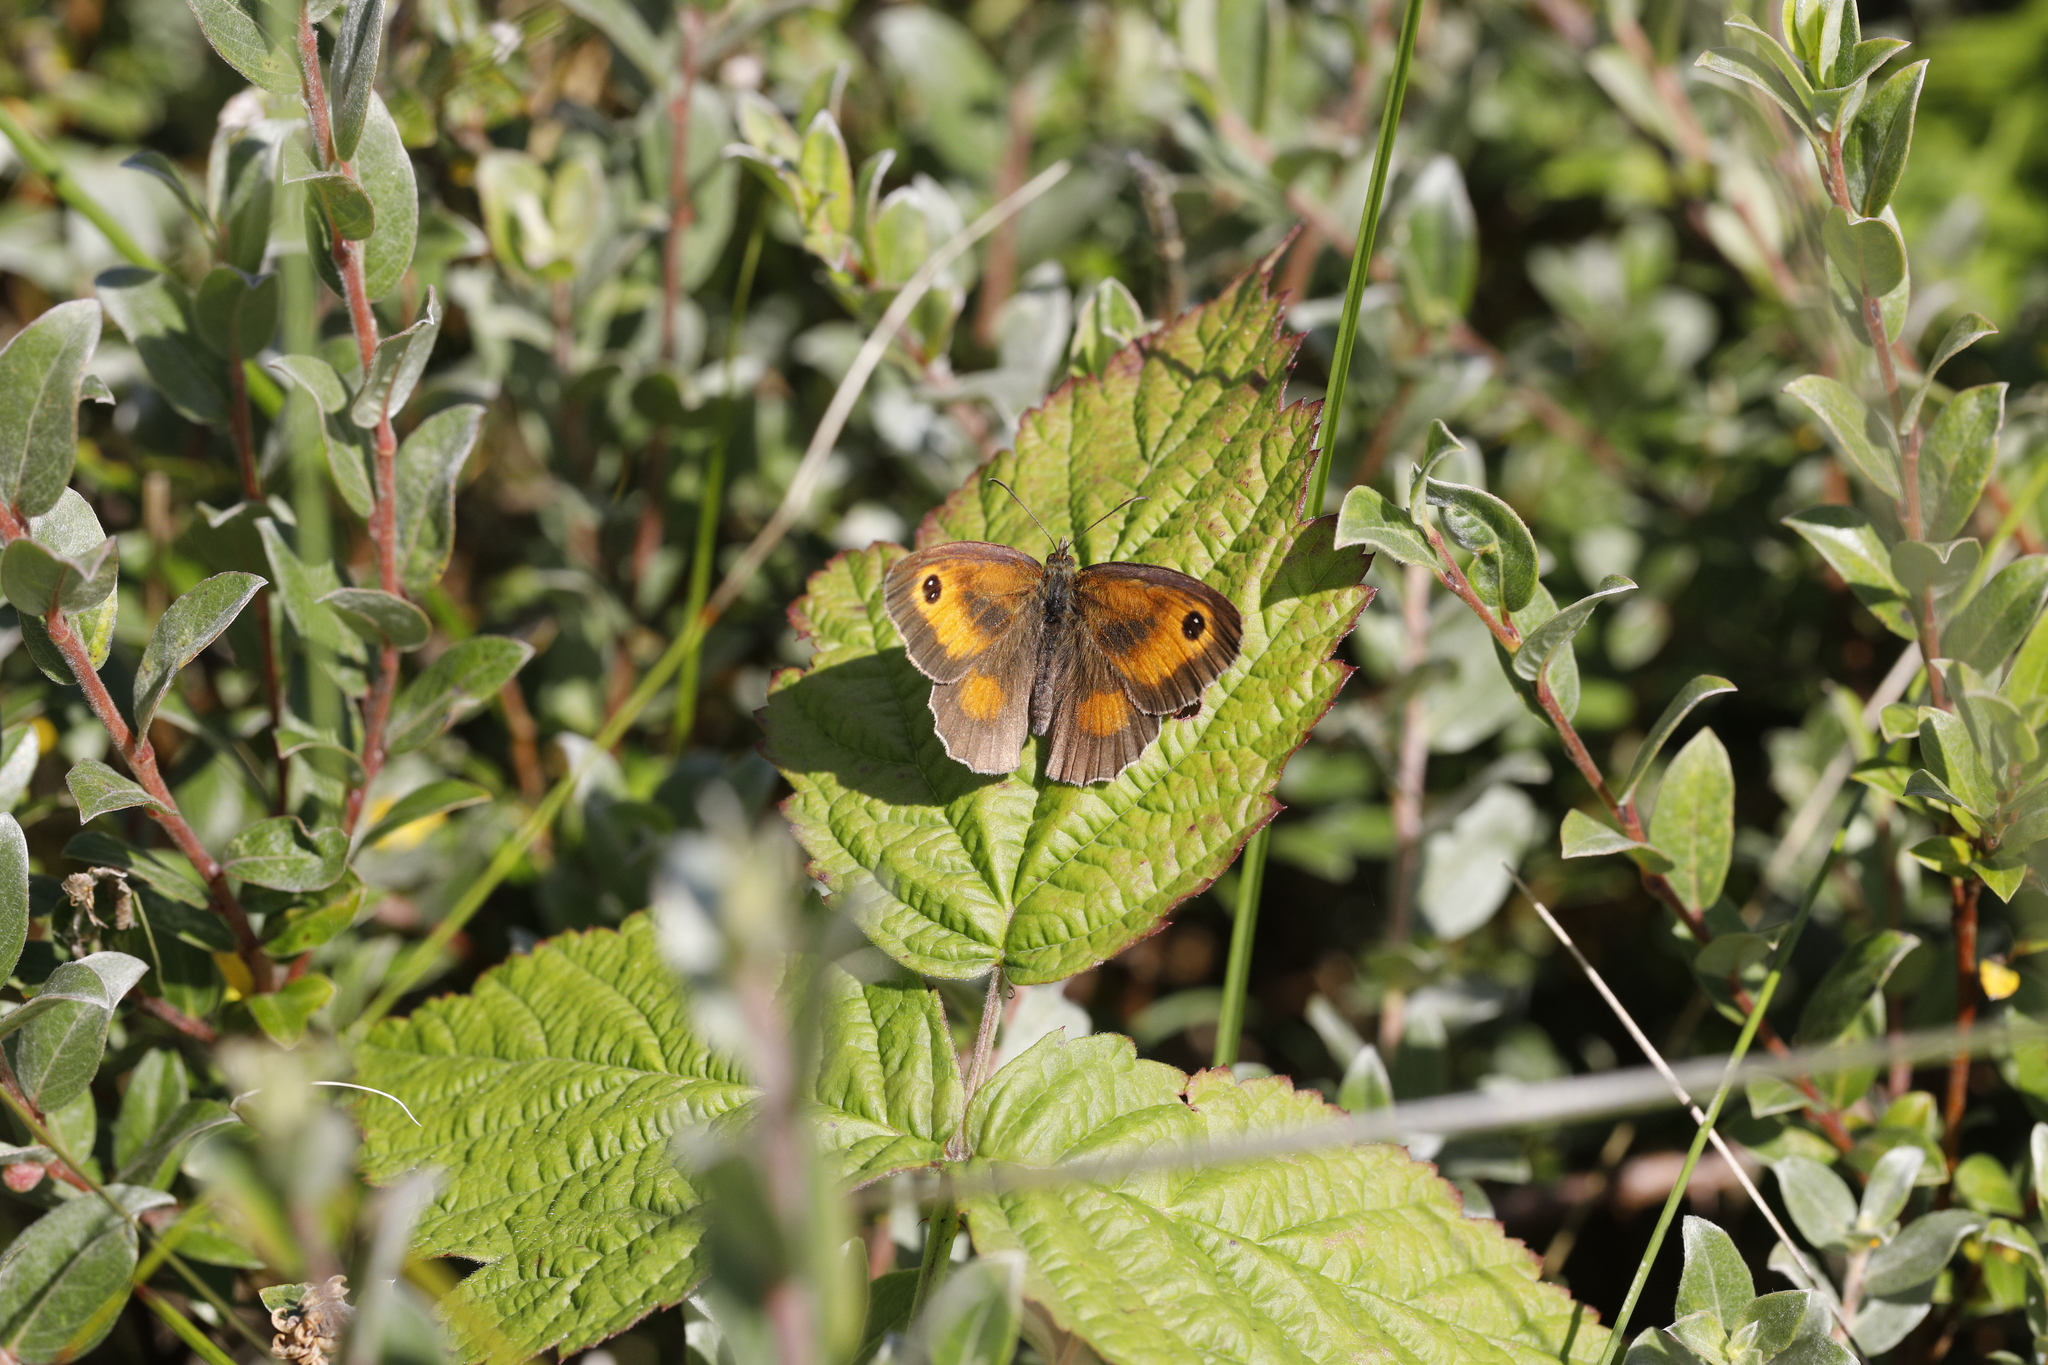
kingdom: Animalia
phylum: Arthropoda
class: Insecta
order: Lepidoptera
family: Nymphalidae
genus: Pyronia
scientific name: Pyronia tithonus
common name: Gatekeeper
